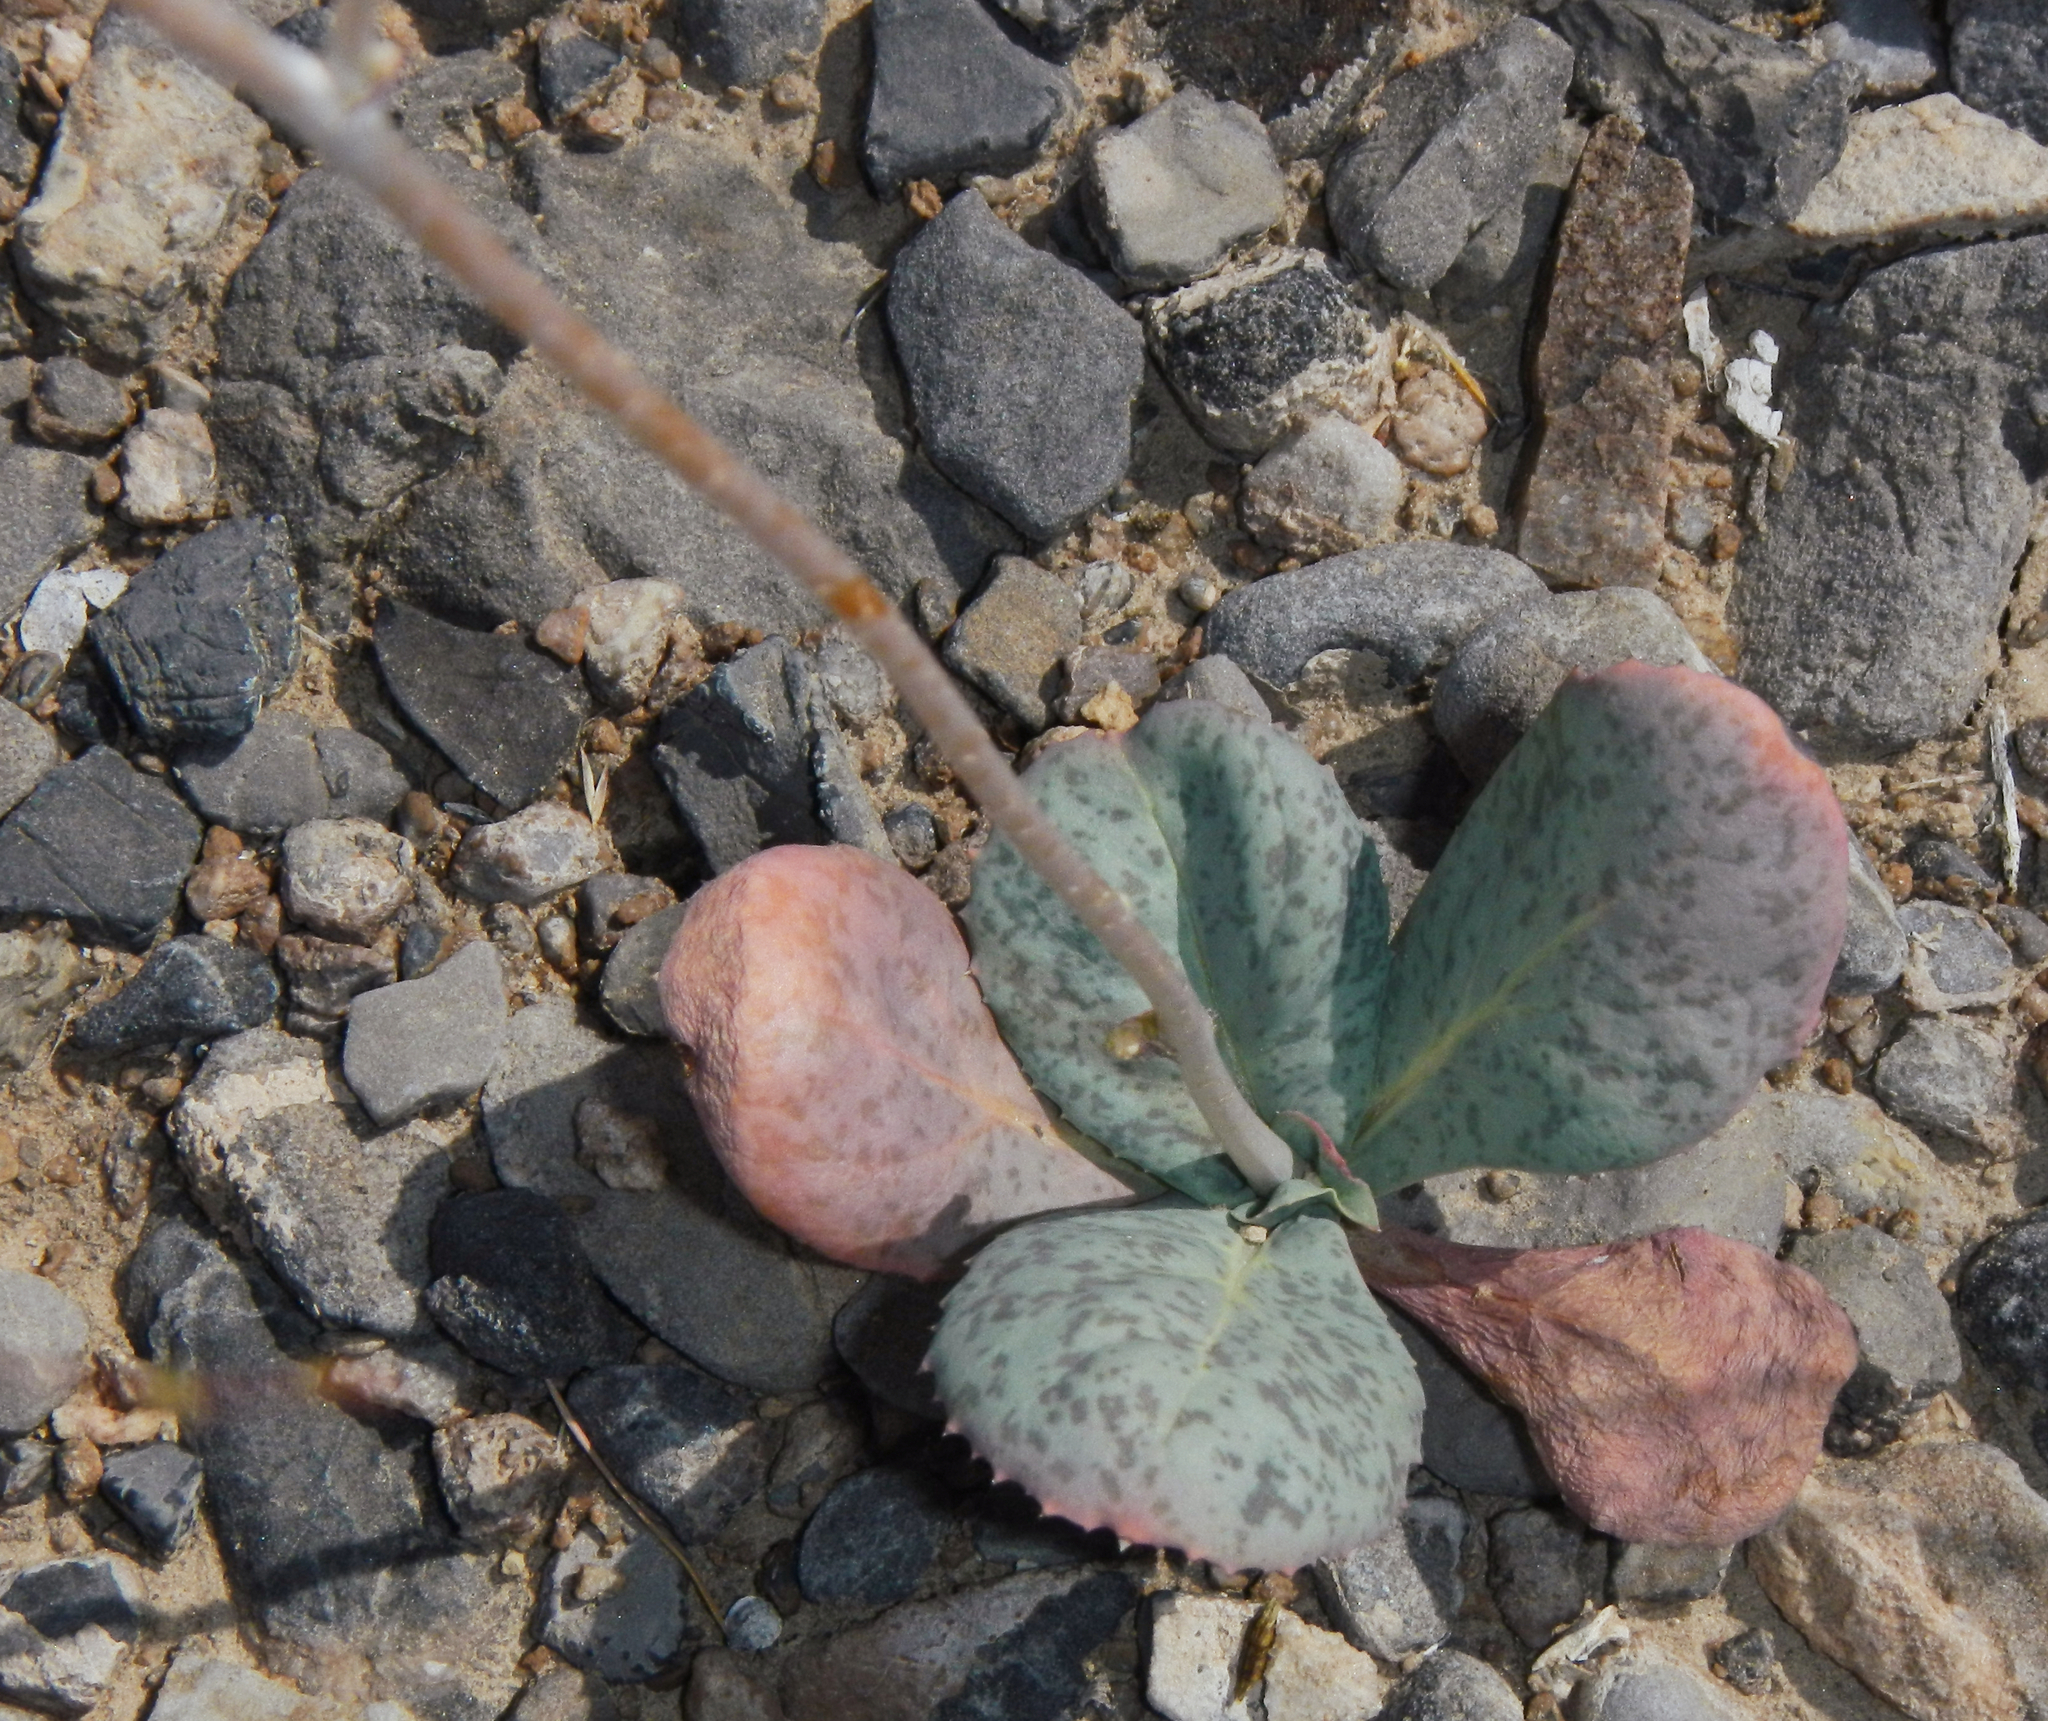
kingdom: Plantae
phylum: Tracheophyta
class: Magnoliopsida
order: Asterales
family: Asteraceae
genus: Atrichoseris
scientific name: Atrichoseris platyphylla
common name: Tobaccoweed
